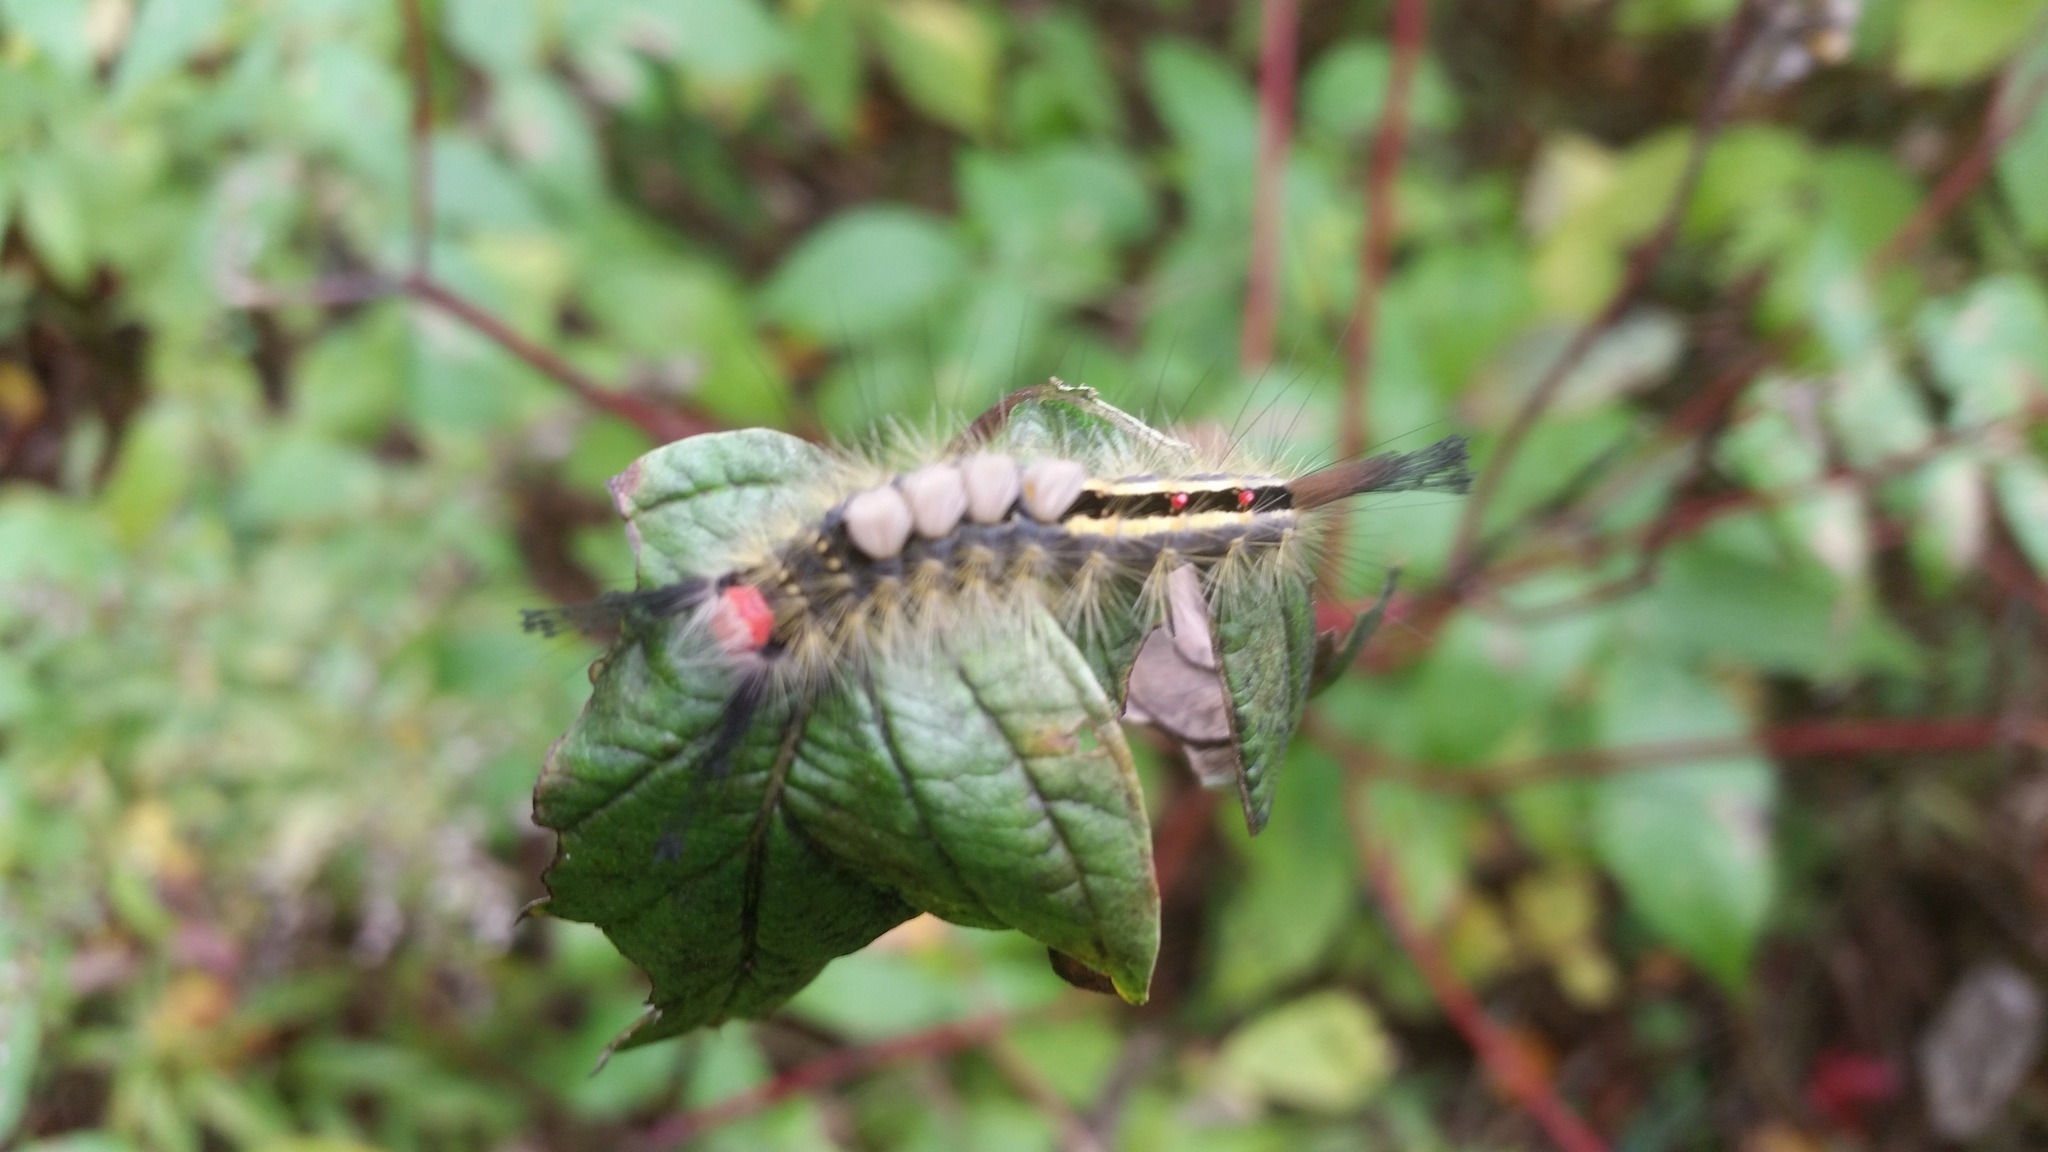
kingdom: Animalia
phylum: Arthropoda
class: Insecta
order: Lepidoptera
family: Erebidae
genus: Orgyia
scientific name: Orgyia leucostigma
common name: White-marked tussock moth
